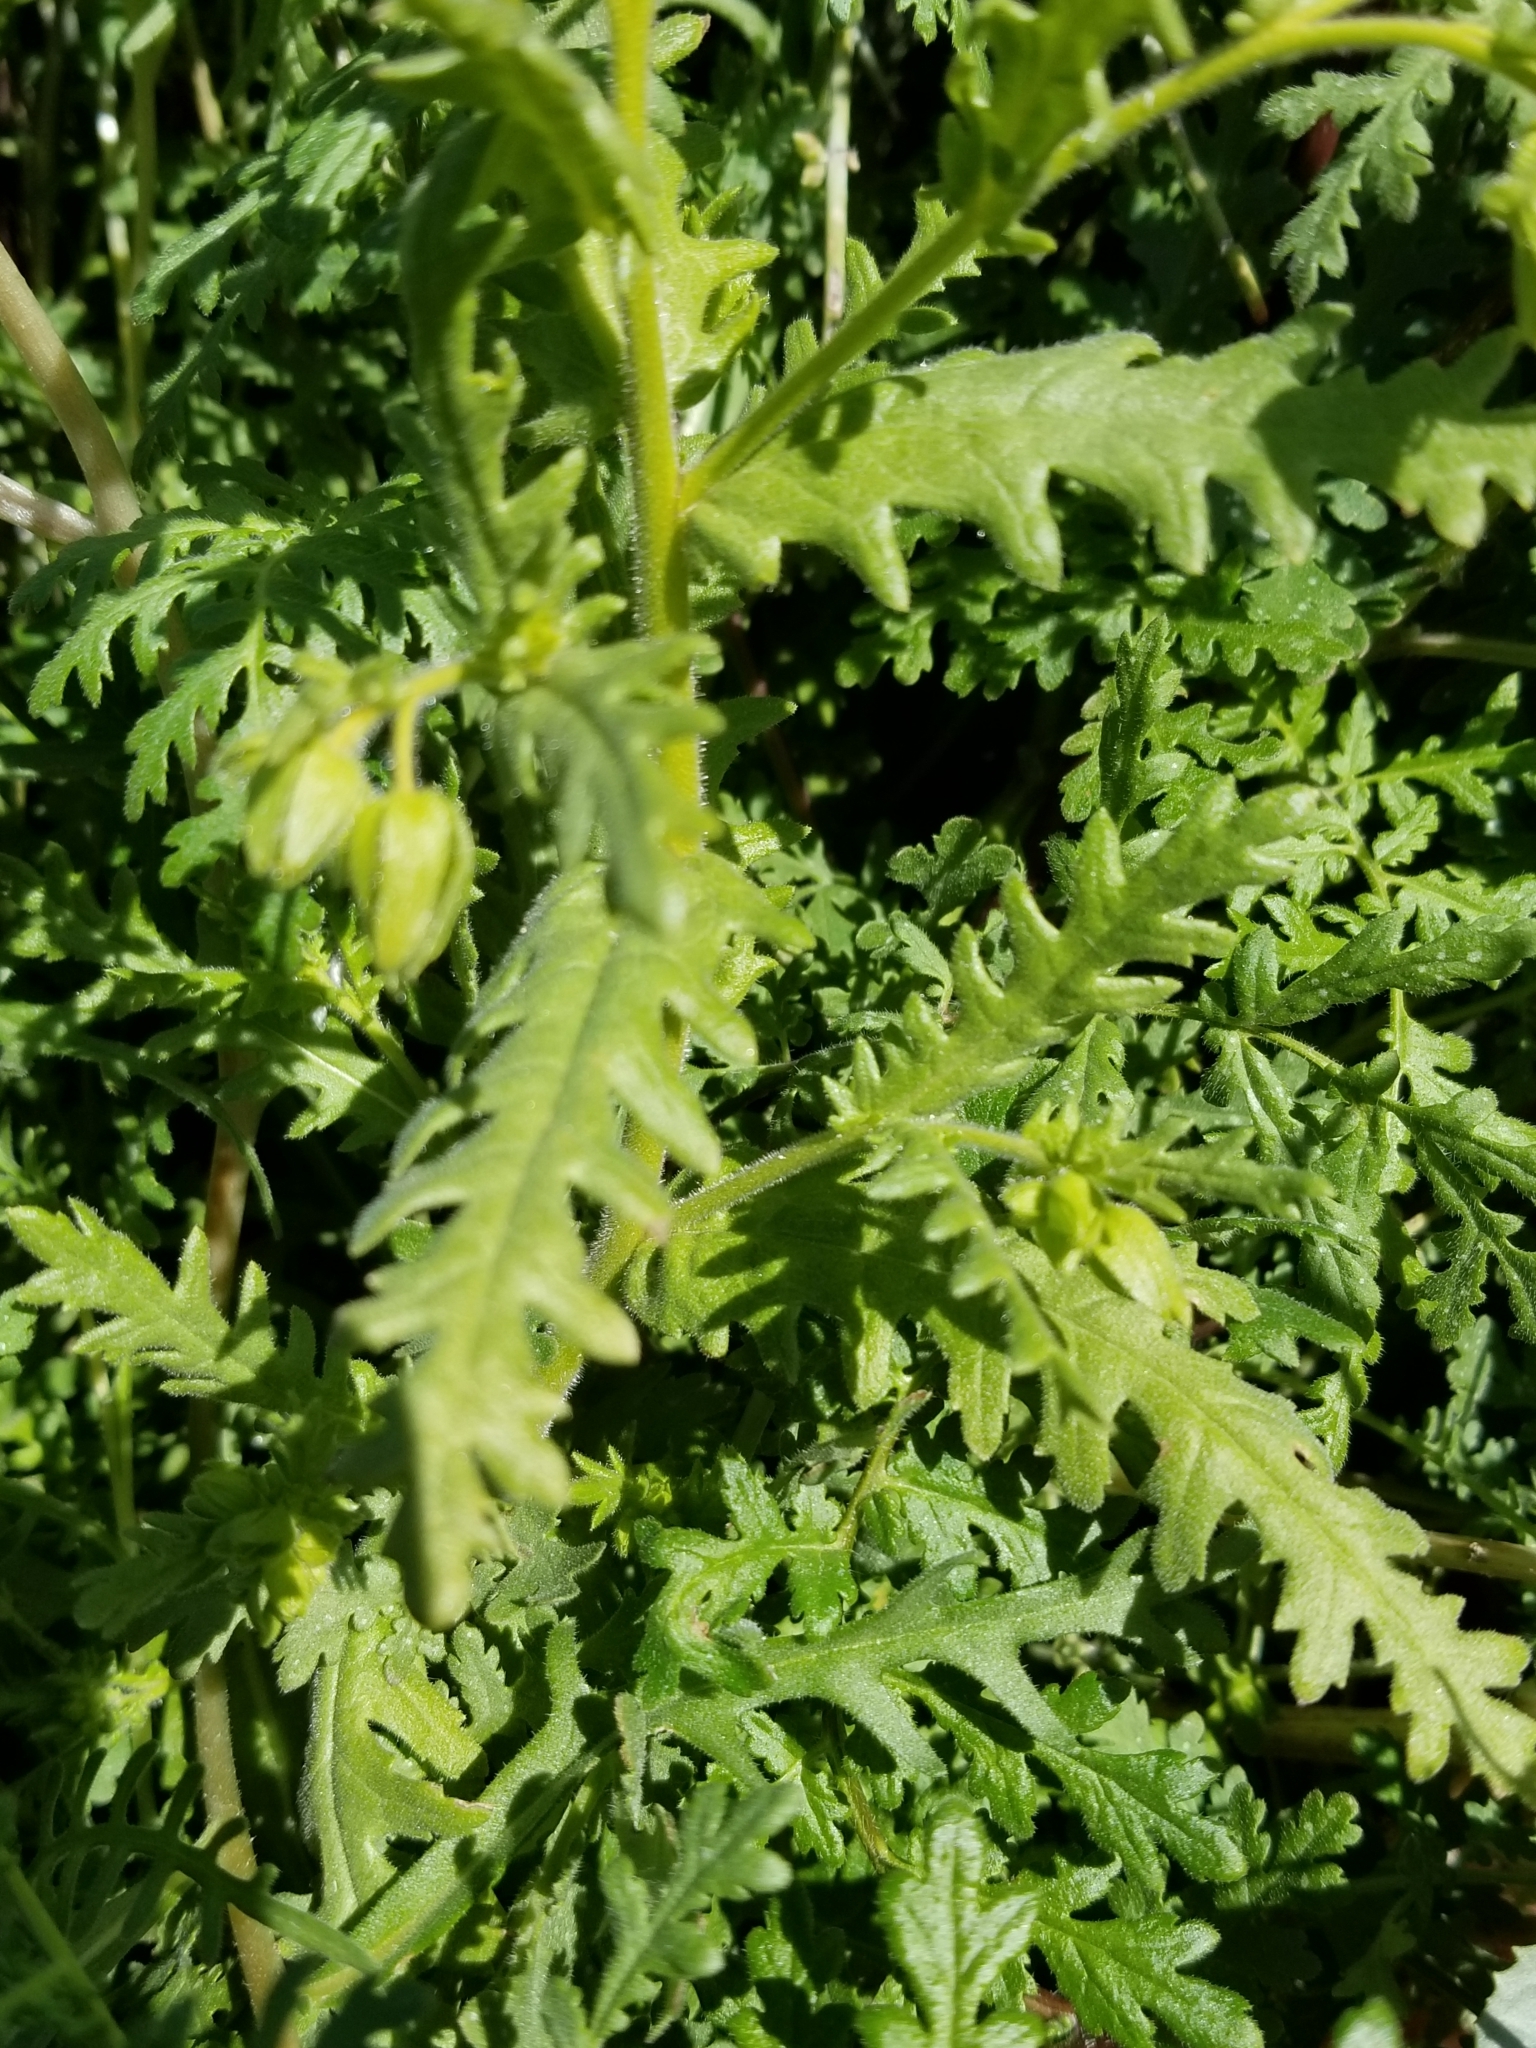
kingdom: Plantae
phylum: Tracheophyta
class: Magnoliopsida
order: Boraginales
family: Hydrophyllaceae
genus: Emmenanthe
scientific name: Emmenanthe penduliflora
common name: Whispering-bells
